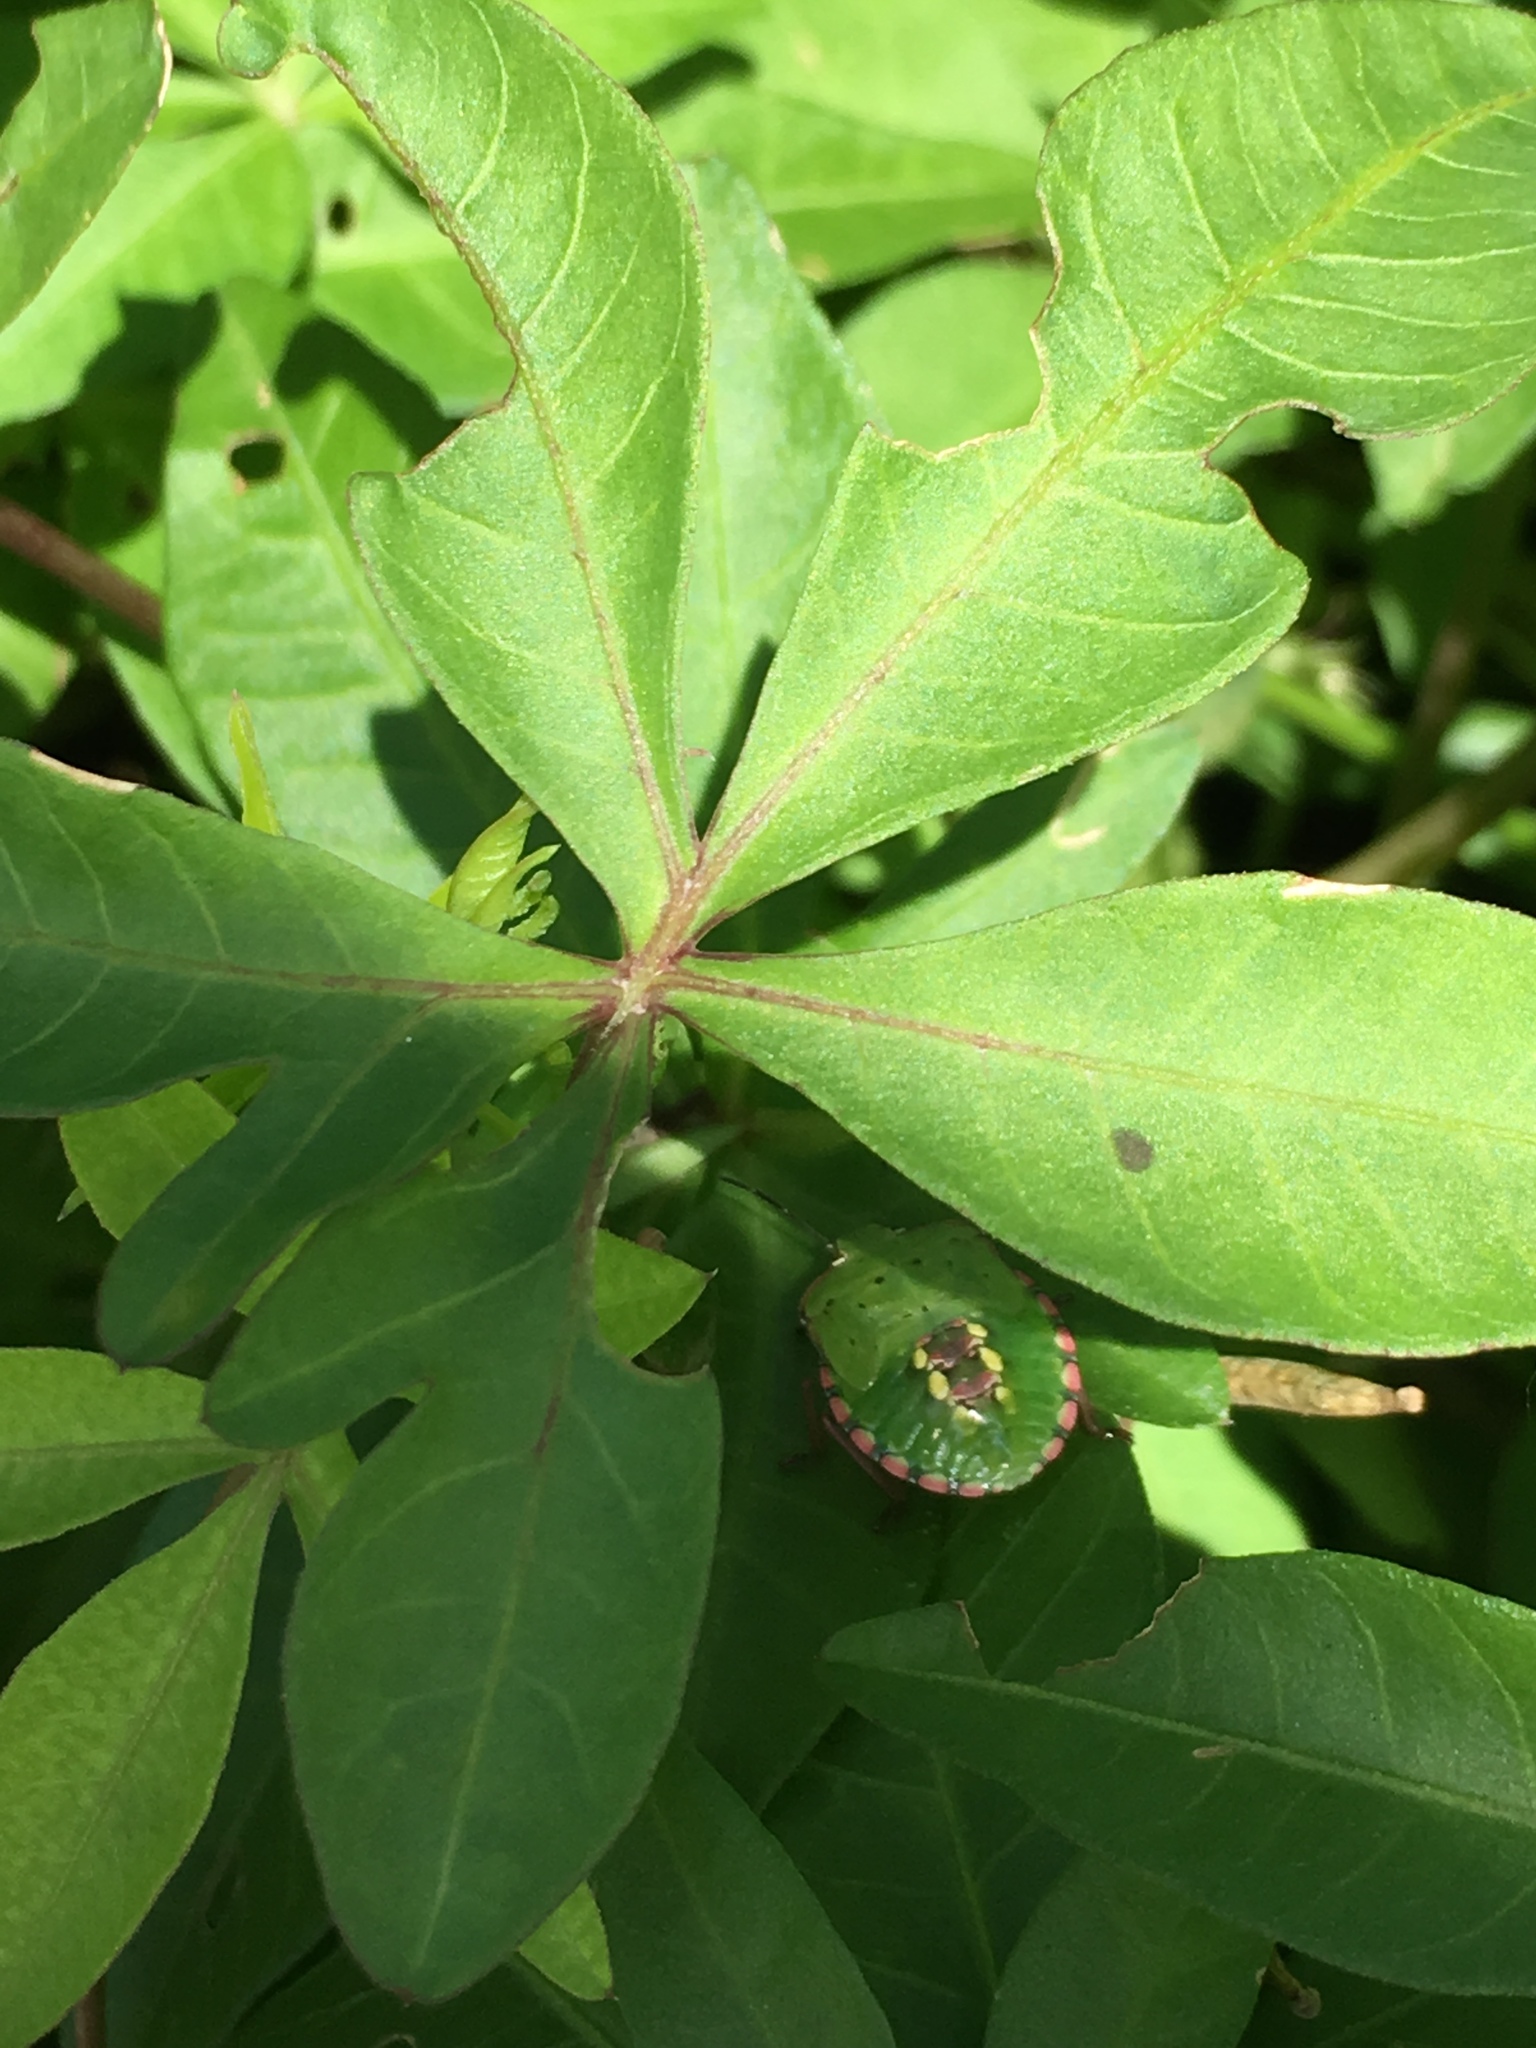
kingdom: Animalia
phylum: Arthropoda
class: Insecta
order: Hemiptera
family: Pentatomidae
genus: Nezara
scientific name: Nezara viridula
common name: Southern green stink bug
